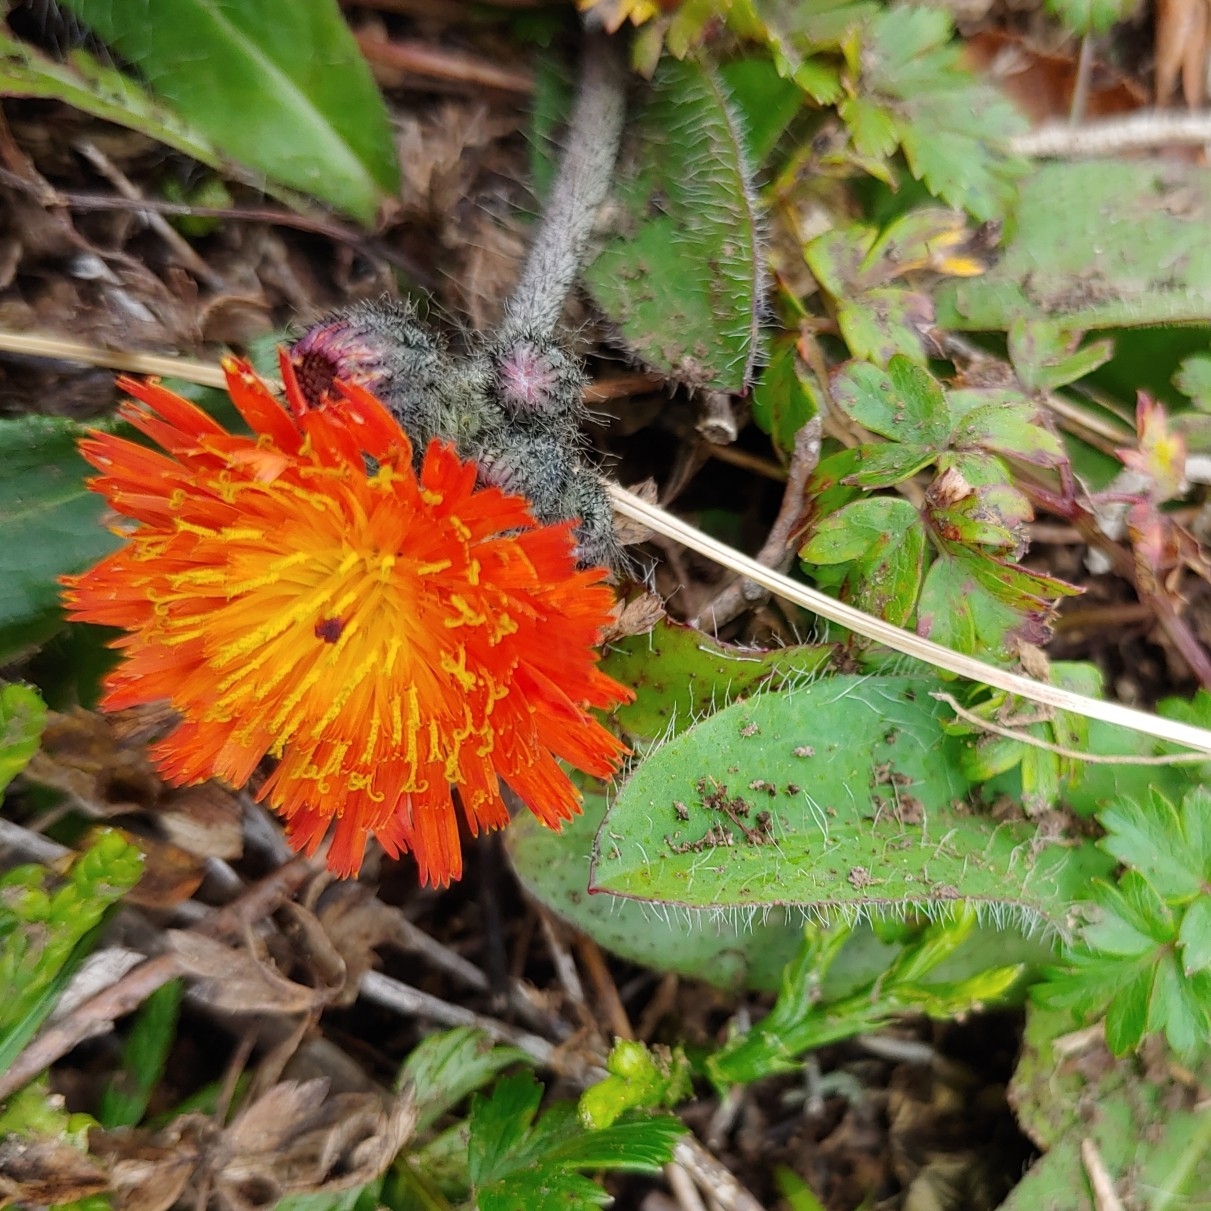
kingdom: Plantae
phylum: Tracheophyta
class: Magnoliopsida
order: Asterales
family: Asteraceae
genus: Pilosella
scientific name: Pilosella aurantiaca
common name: Fox-and-cubs
